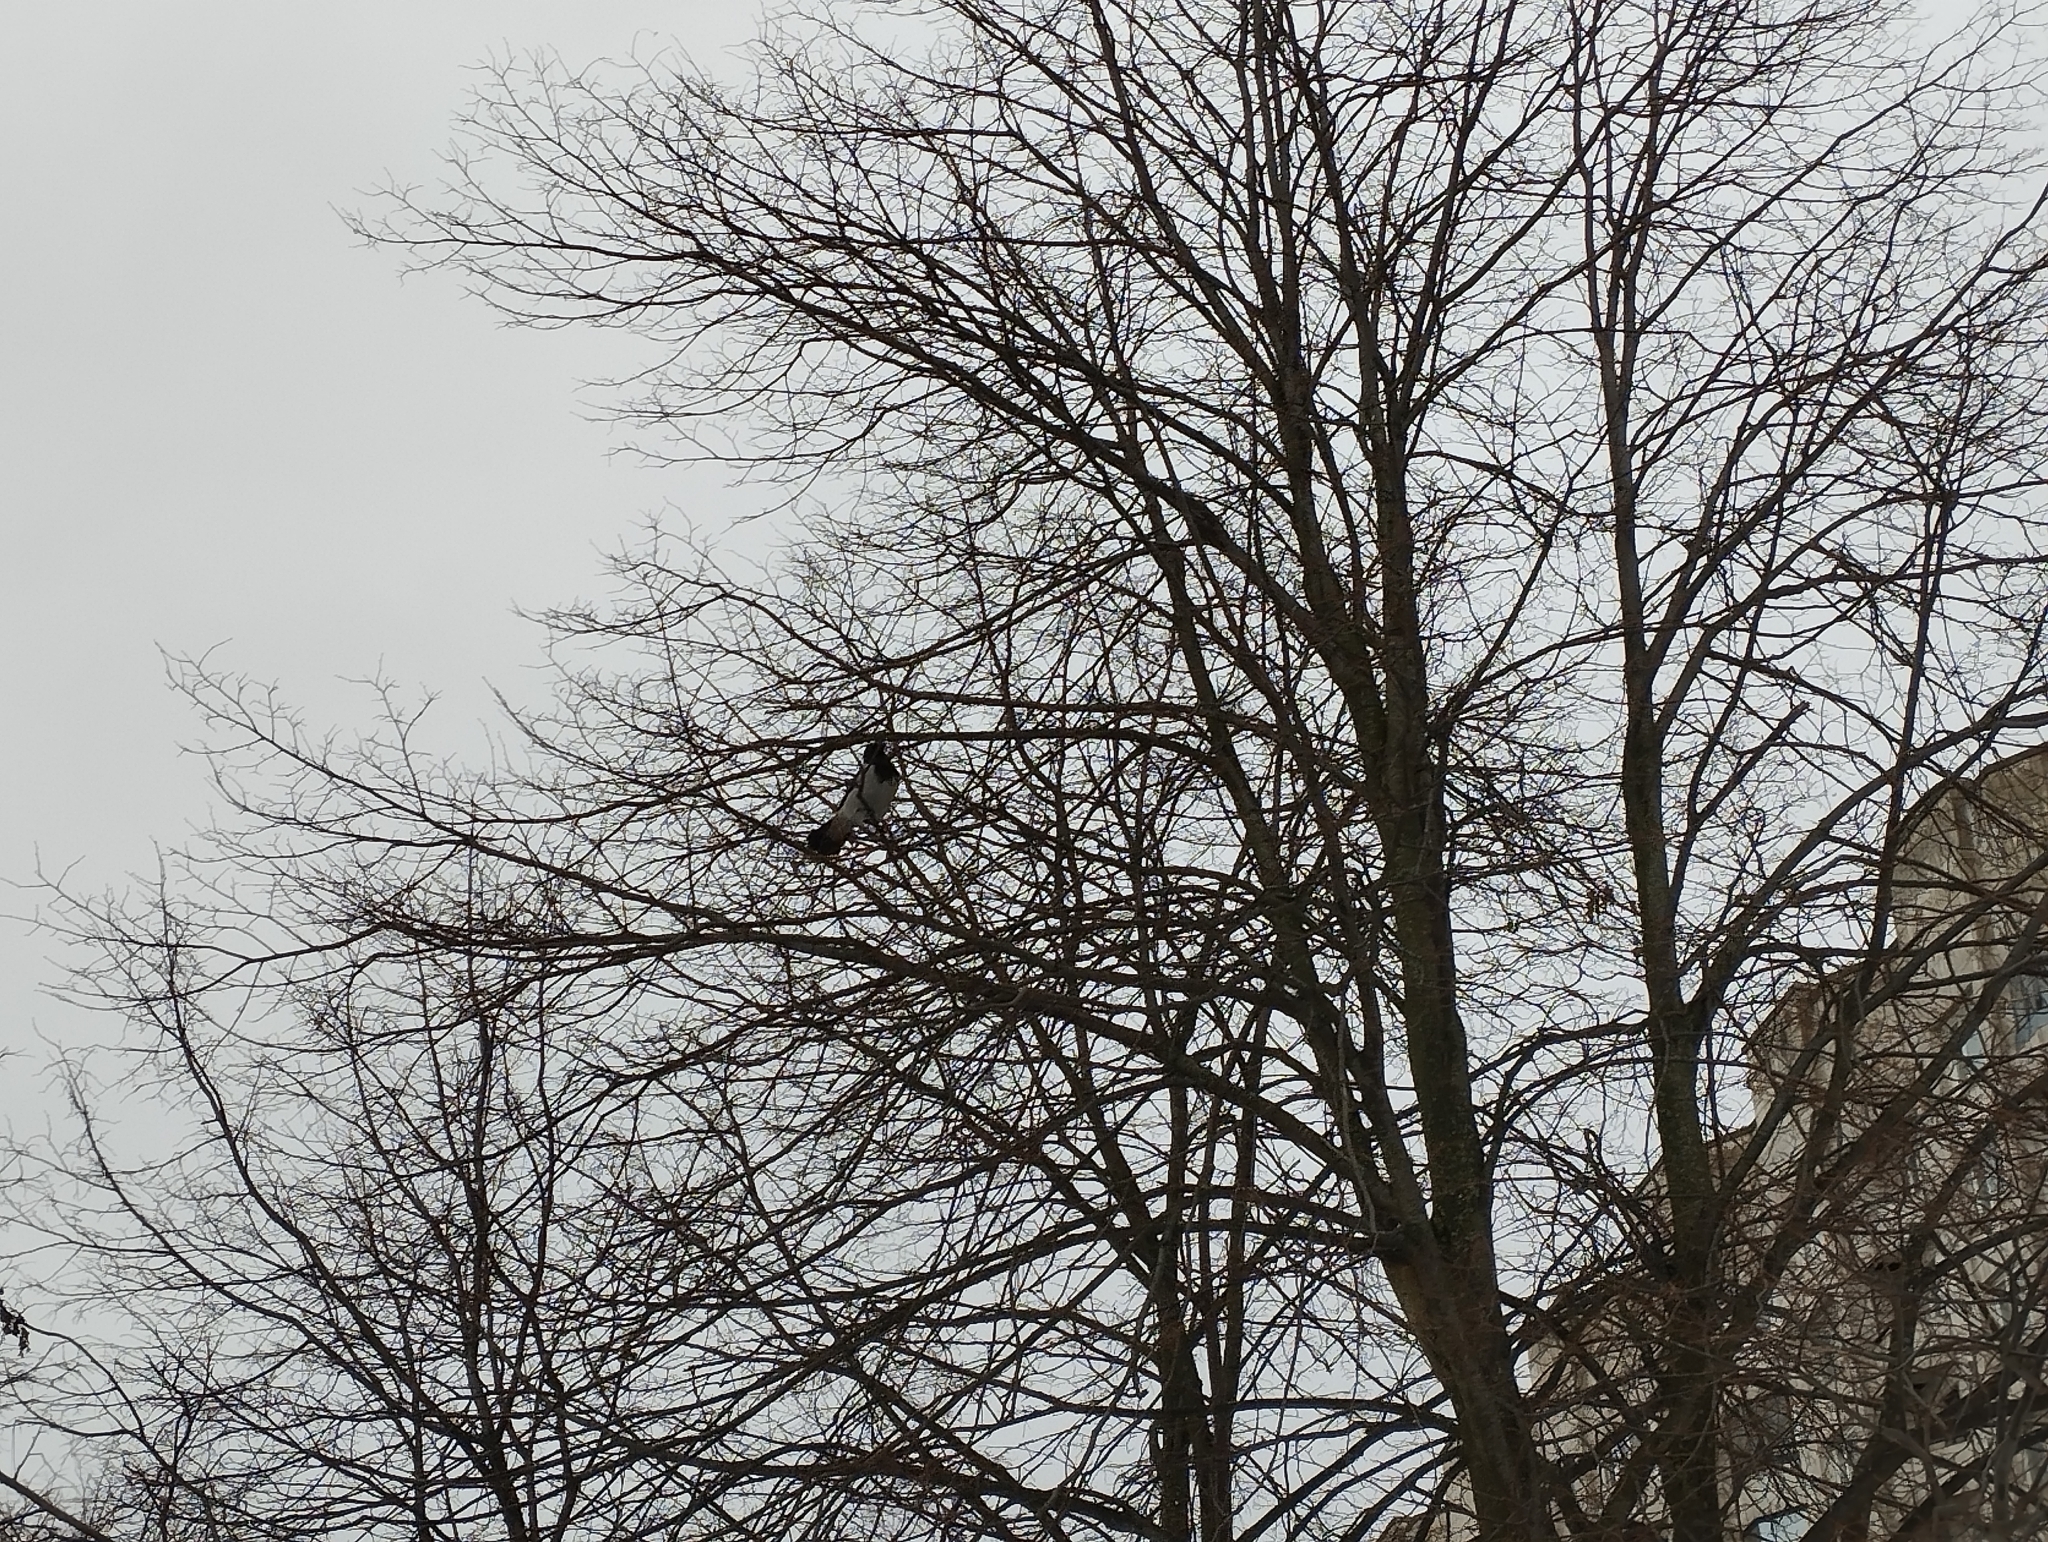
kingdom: Animalia
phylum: Chordata
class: Aves
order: Passeriformes
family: Corvidae
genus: Corvus
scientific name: Corvus cornix
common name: Hooded crow
